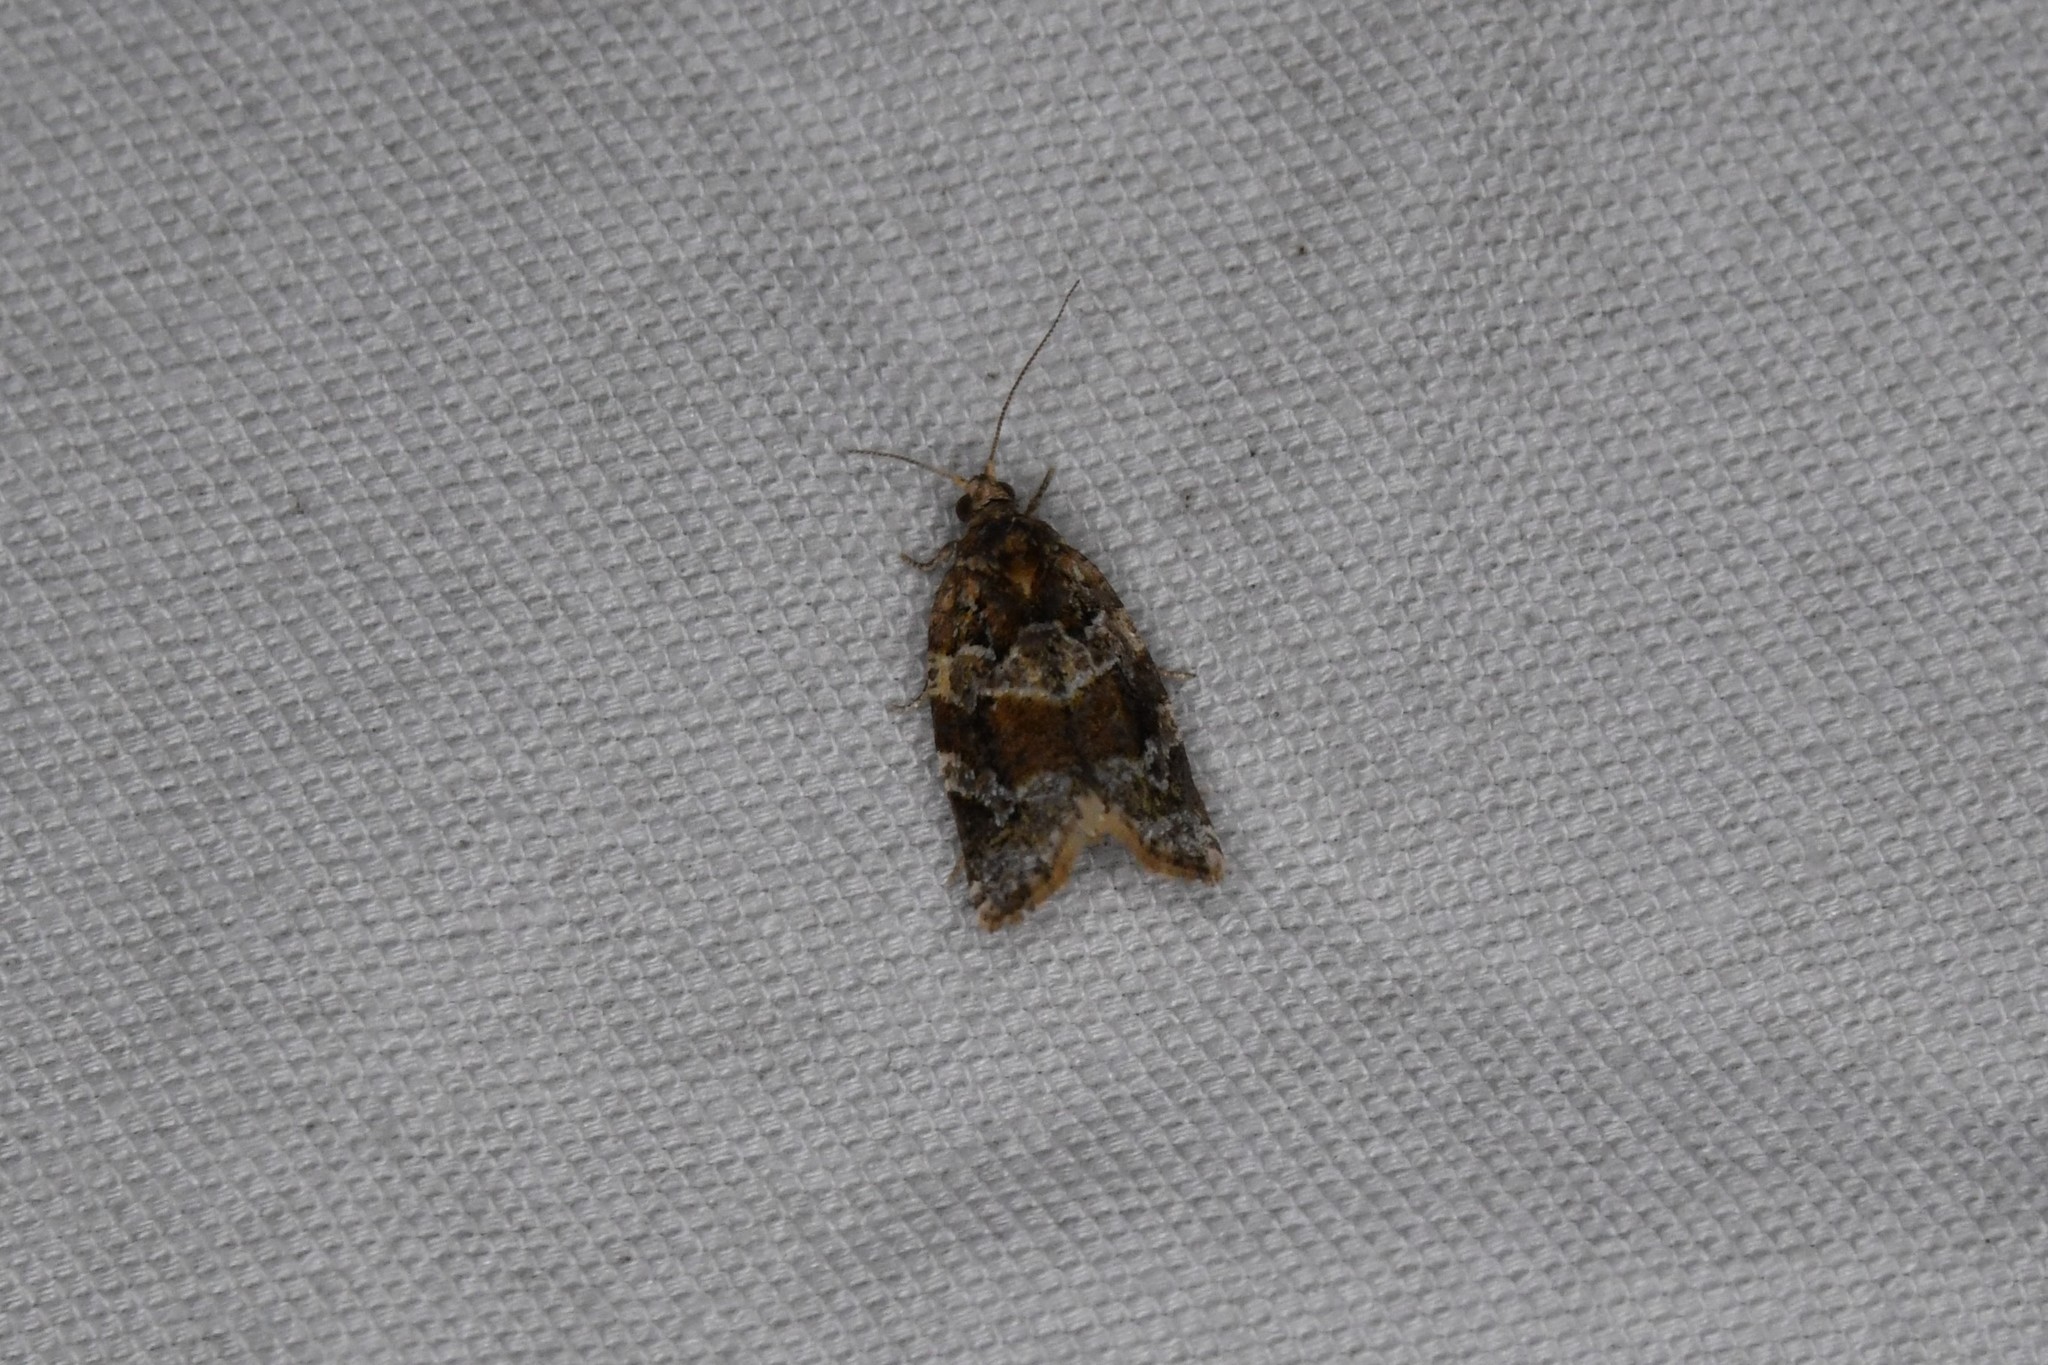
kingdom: Animalia
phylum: Arthropoda
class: Insecta
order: Lepidoptera
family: Tortricidae
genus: Argyrotaenia
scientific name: Argyrotaenia velutinana
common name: Red-banded leafroller moth
